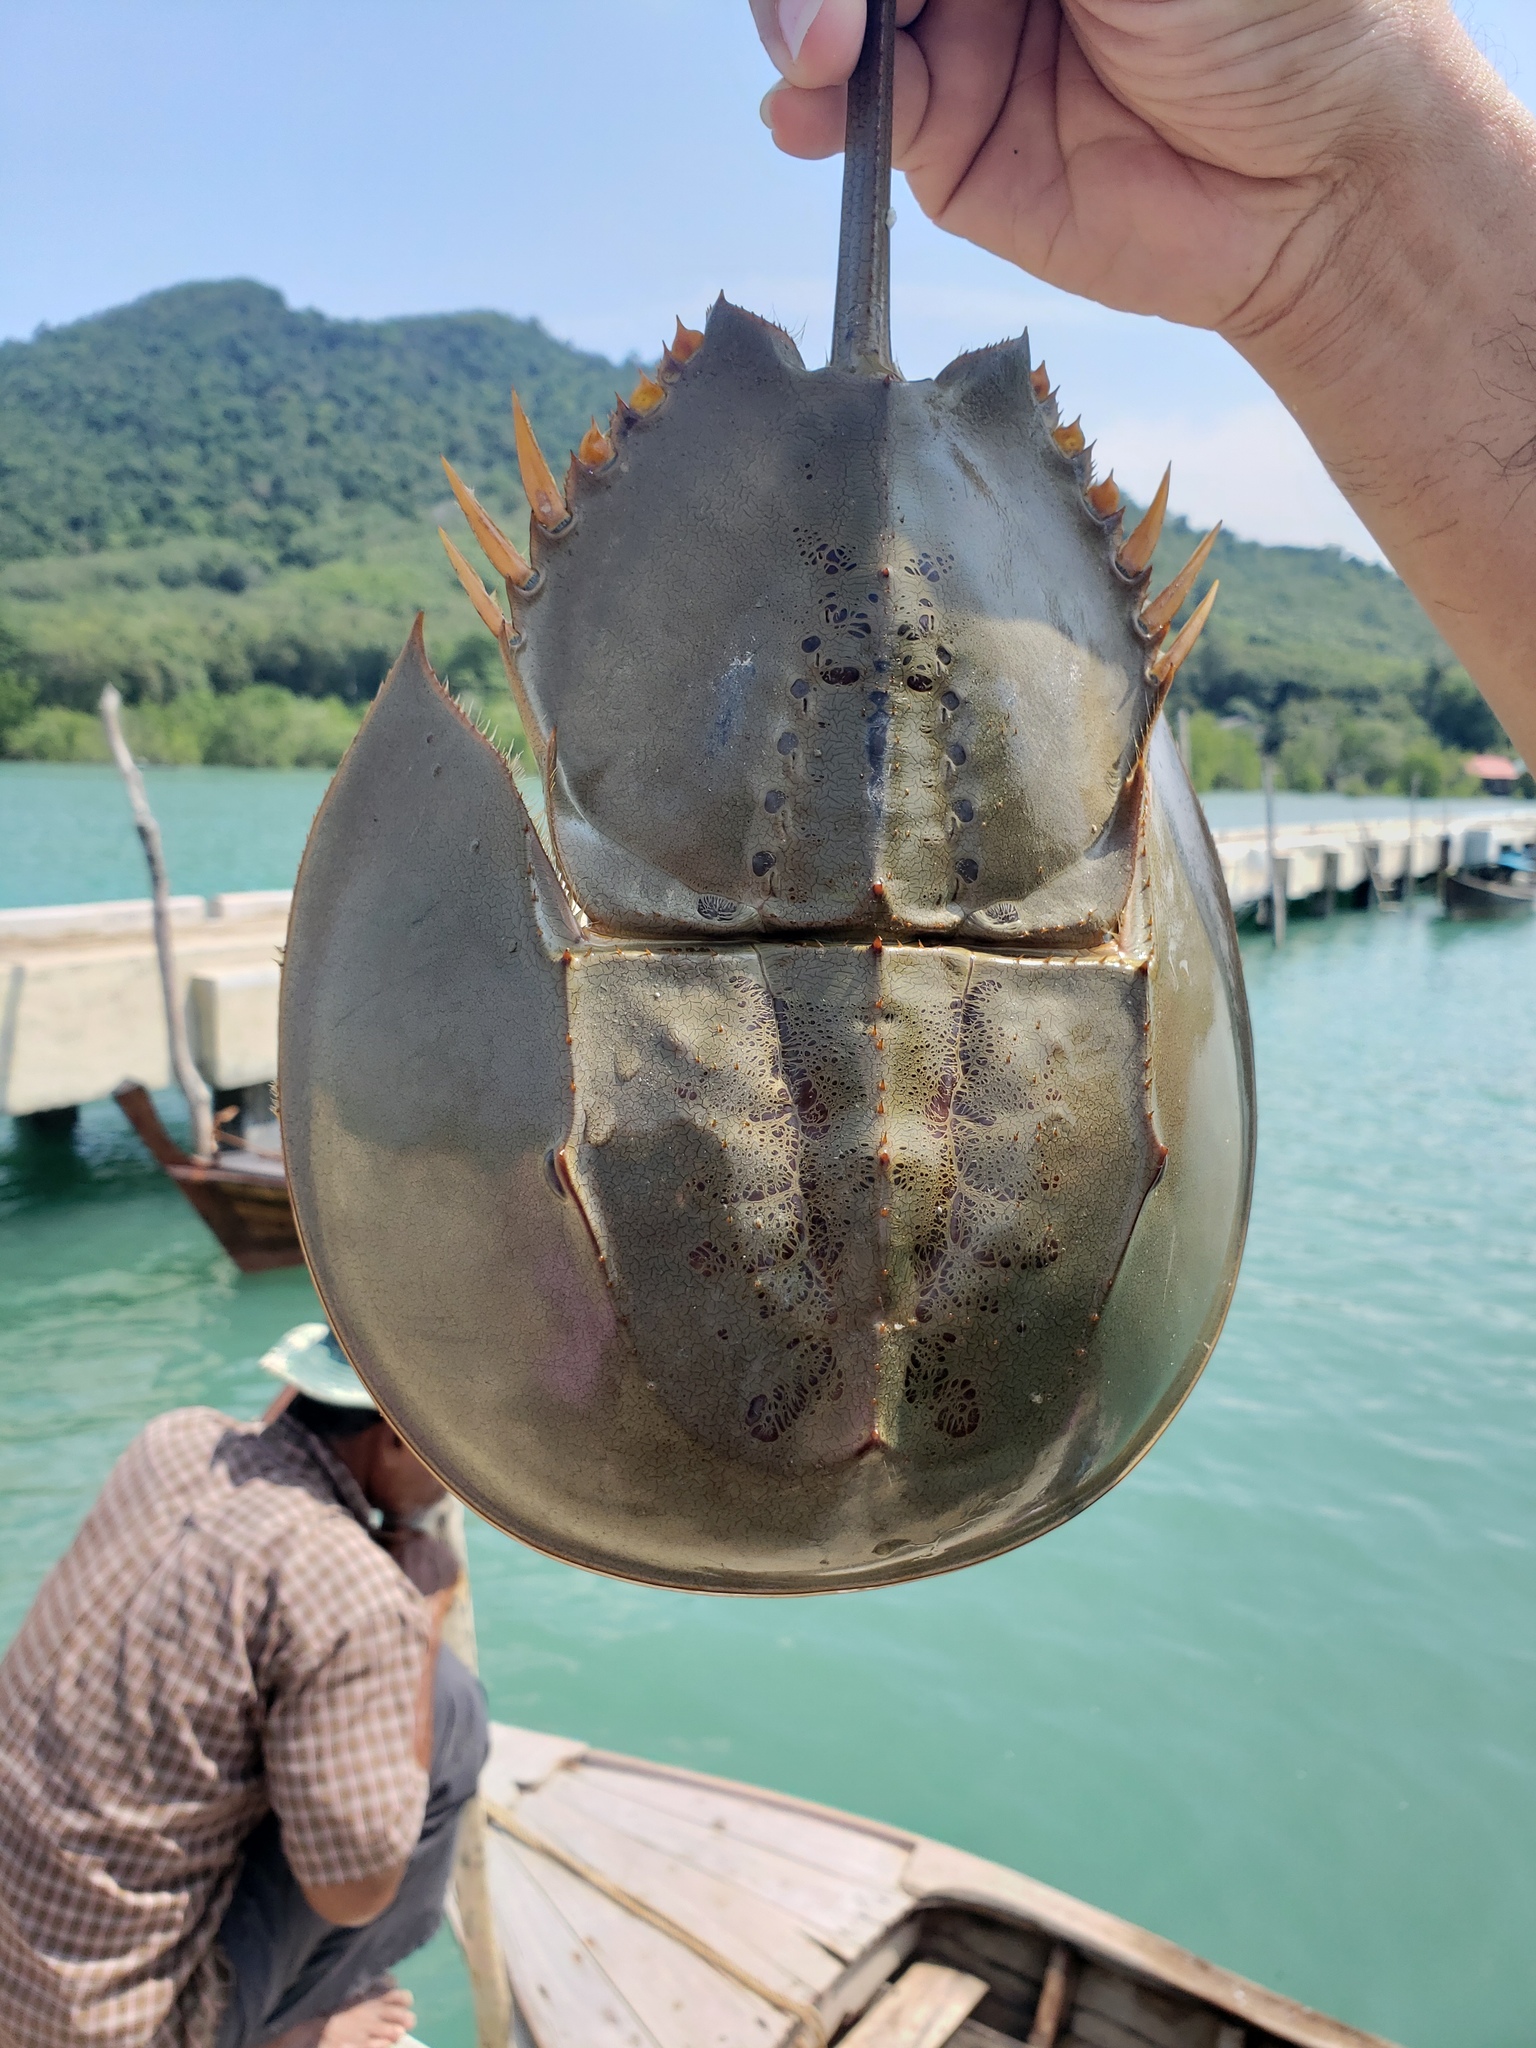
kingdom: Animalia
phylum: Arthropoda
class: Merostomata
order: Xiphosurida
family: Limulidae
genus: Tachypleus
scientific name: Tachypleus gigas
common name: Coastal horseshoe crab
